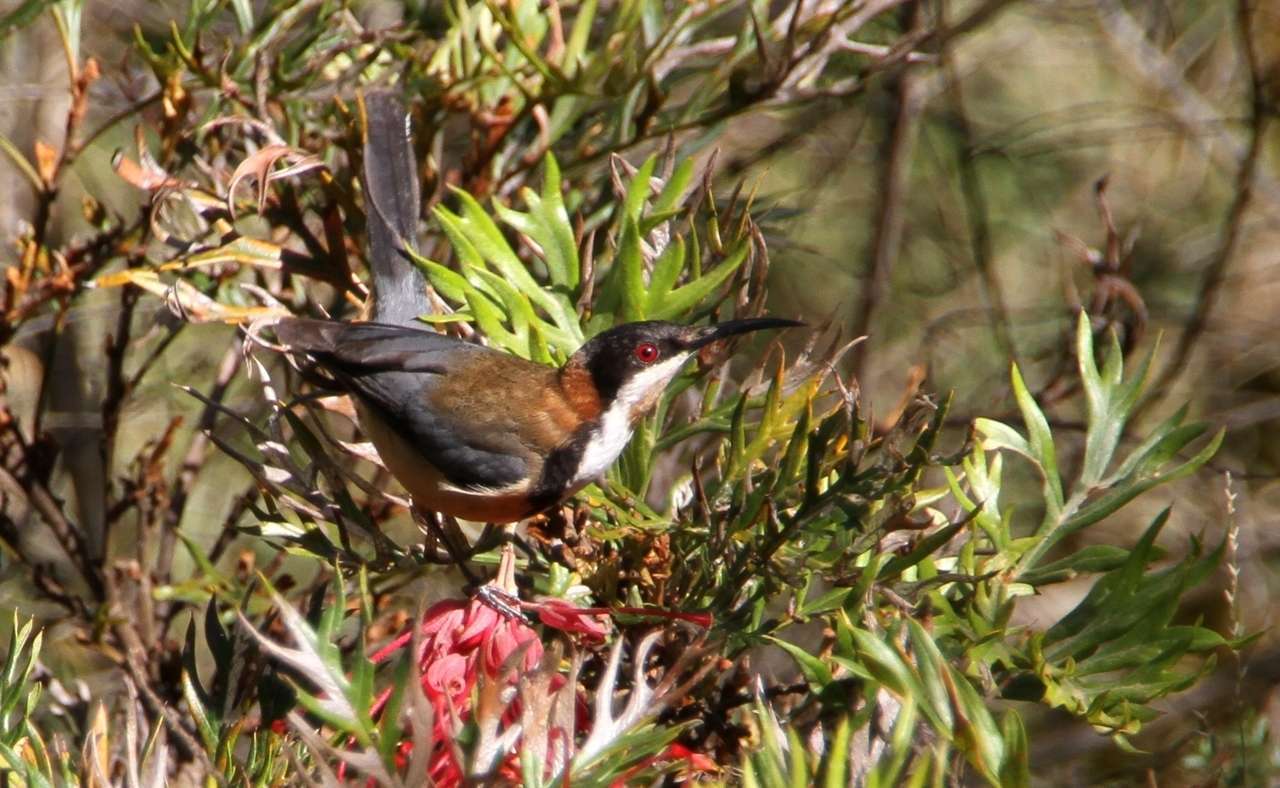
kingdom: Animalia
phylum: Chordata
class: Aves
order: Passeriformes
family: Meliphagidae
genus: Acanthorhynchus
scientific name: Acanthorhynchus tenuirostris
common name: Eastern spinebill
